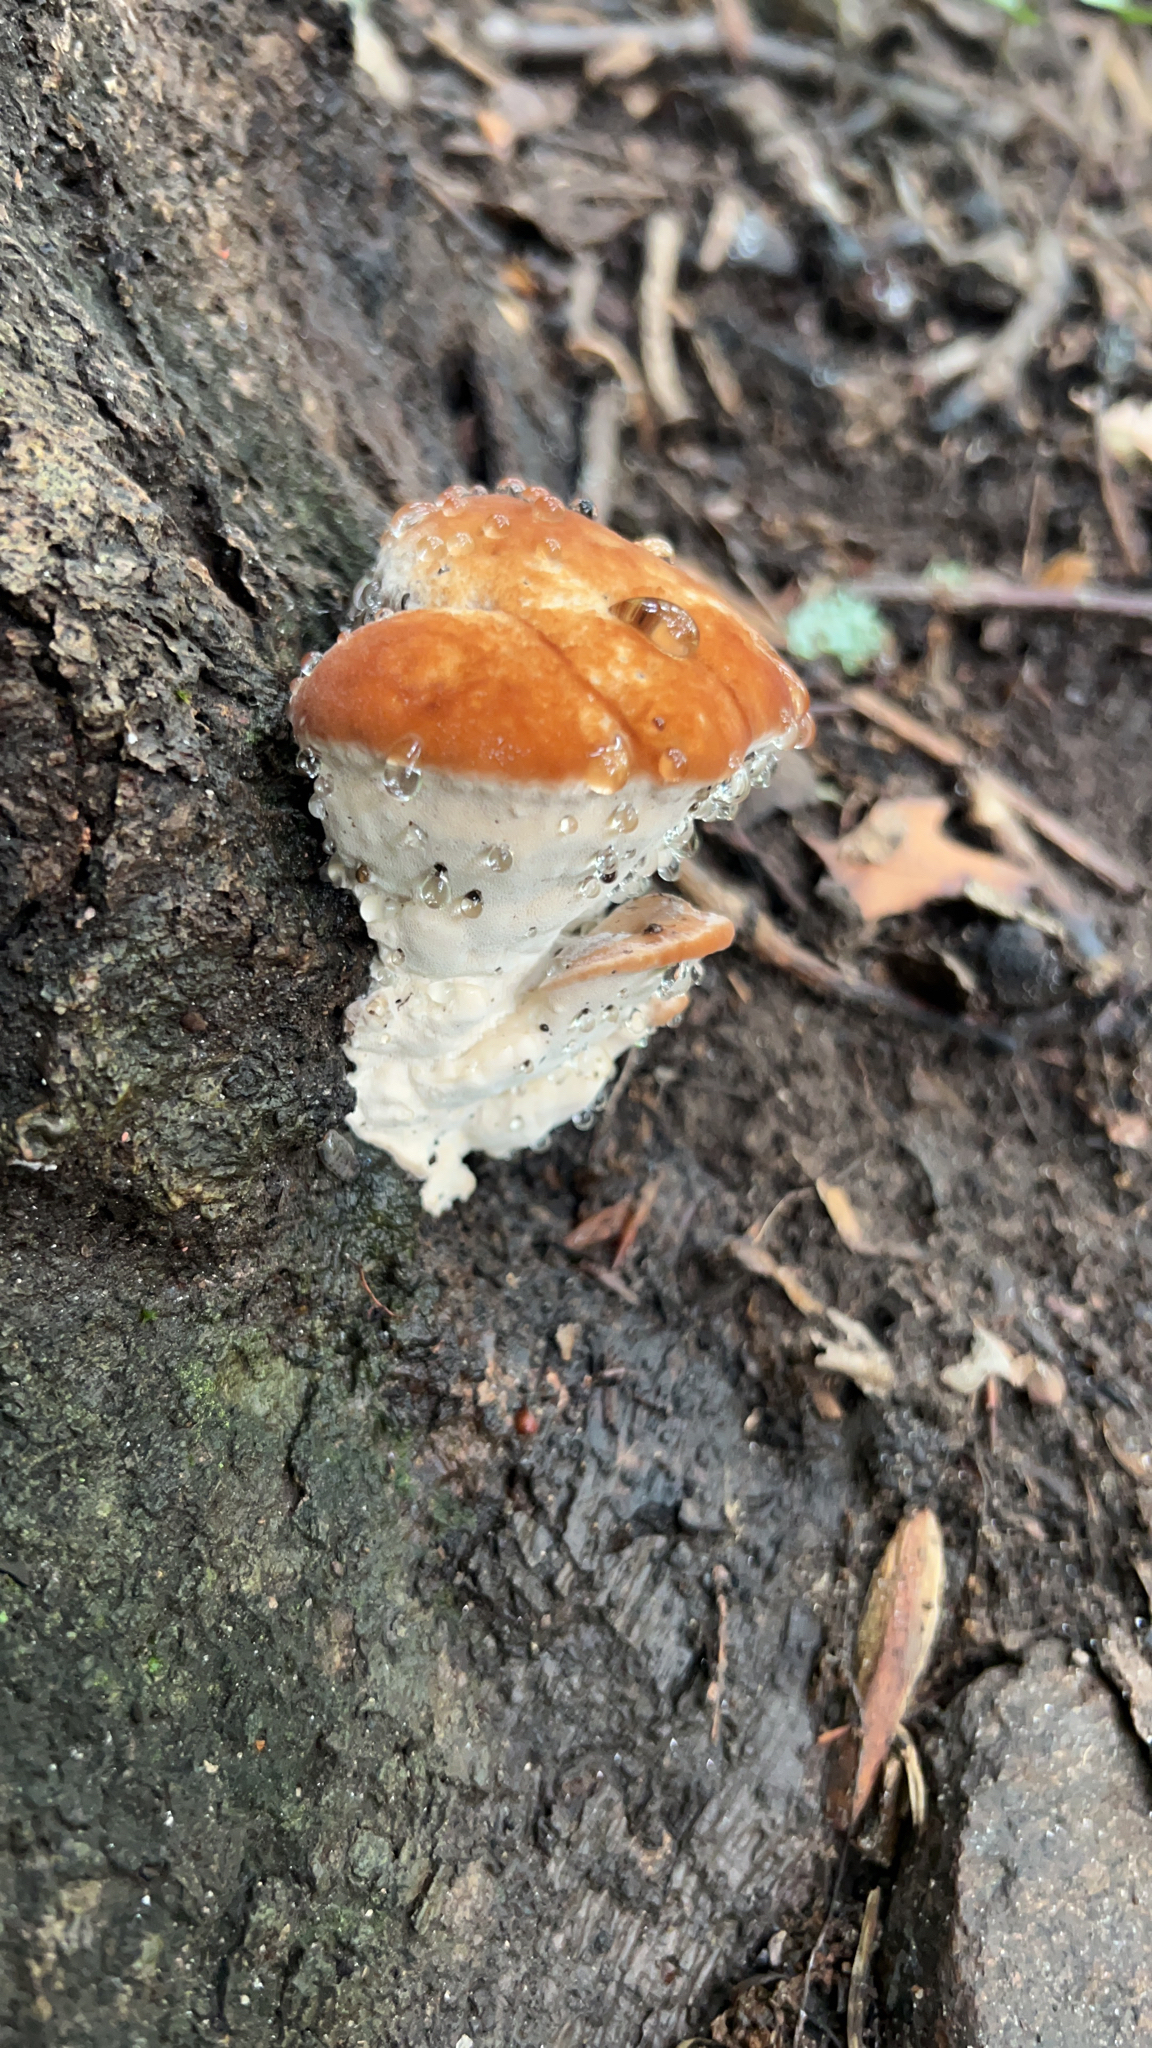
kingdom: Fungi
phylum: Basidiomycota
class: Agaricomycetes
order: Polyporales
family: Fomitopsidaceae
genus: Niveoporofomes
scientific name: Niveoporofomes spraguei
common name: Green cheese polypore
